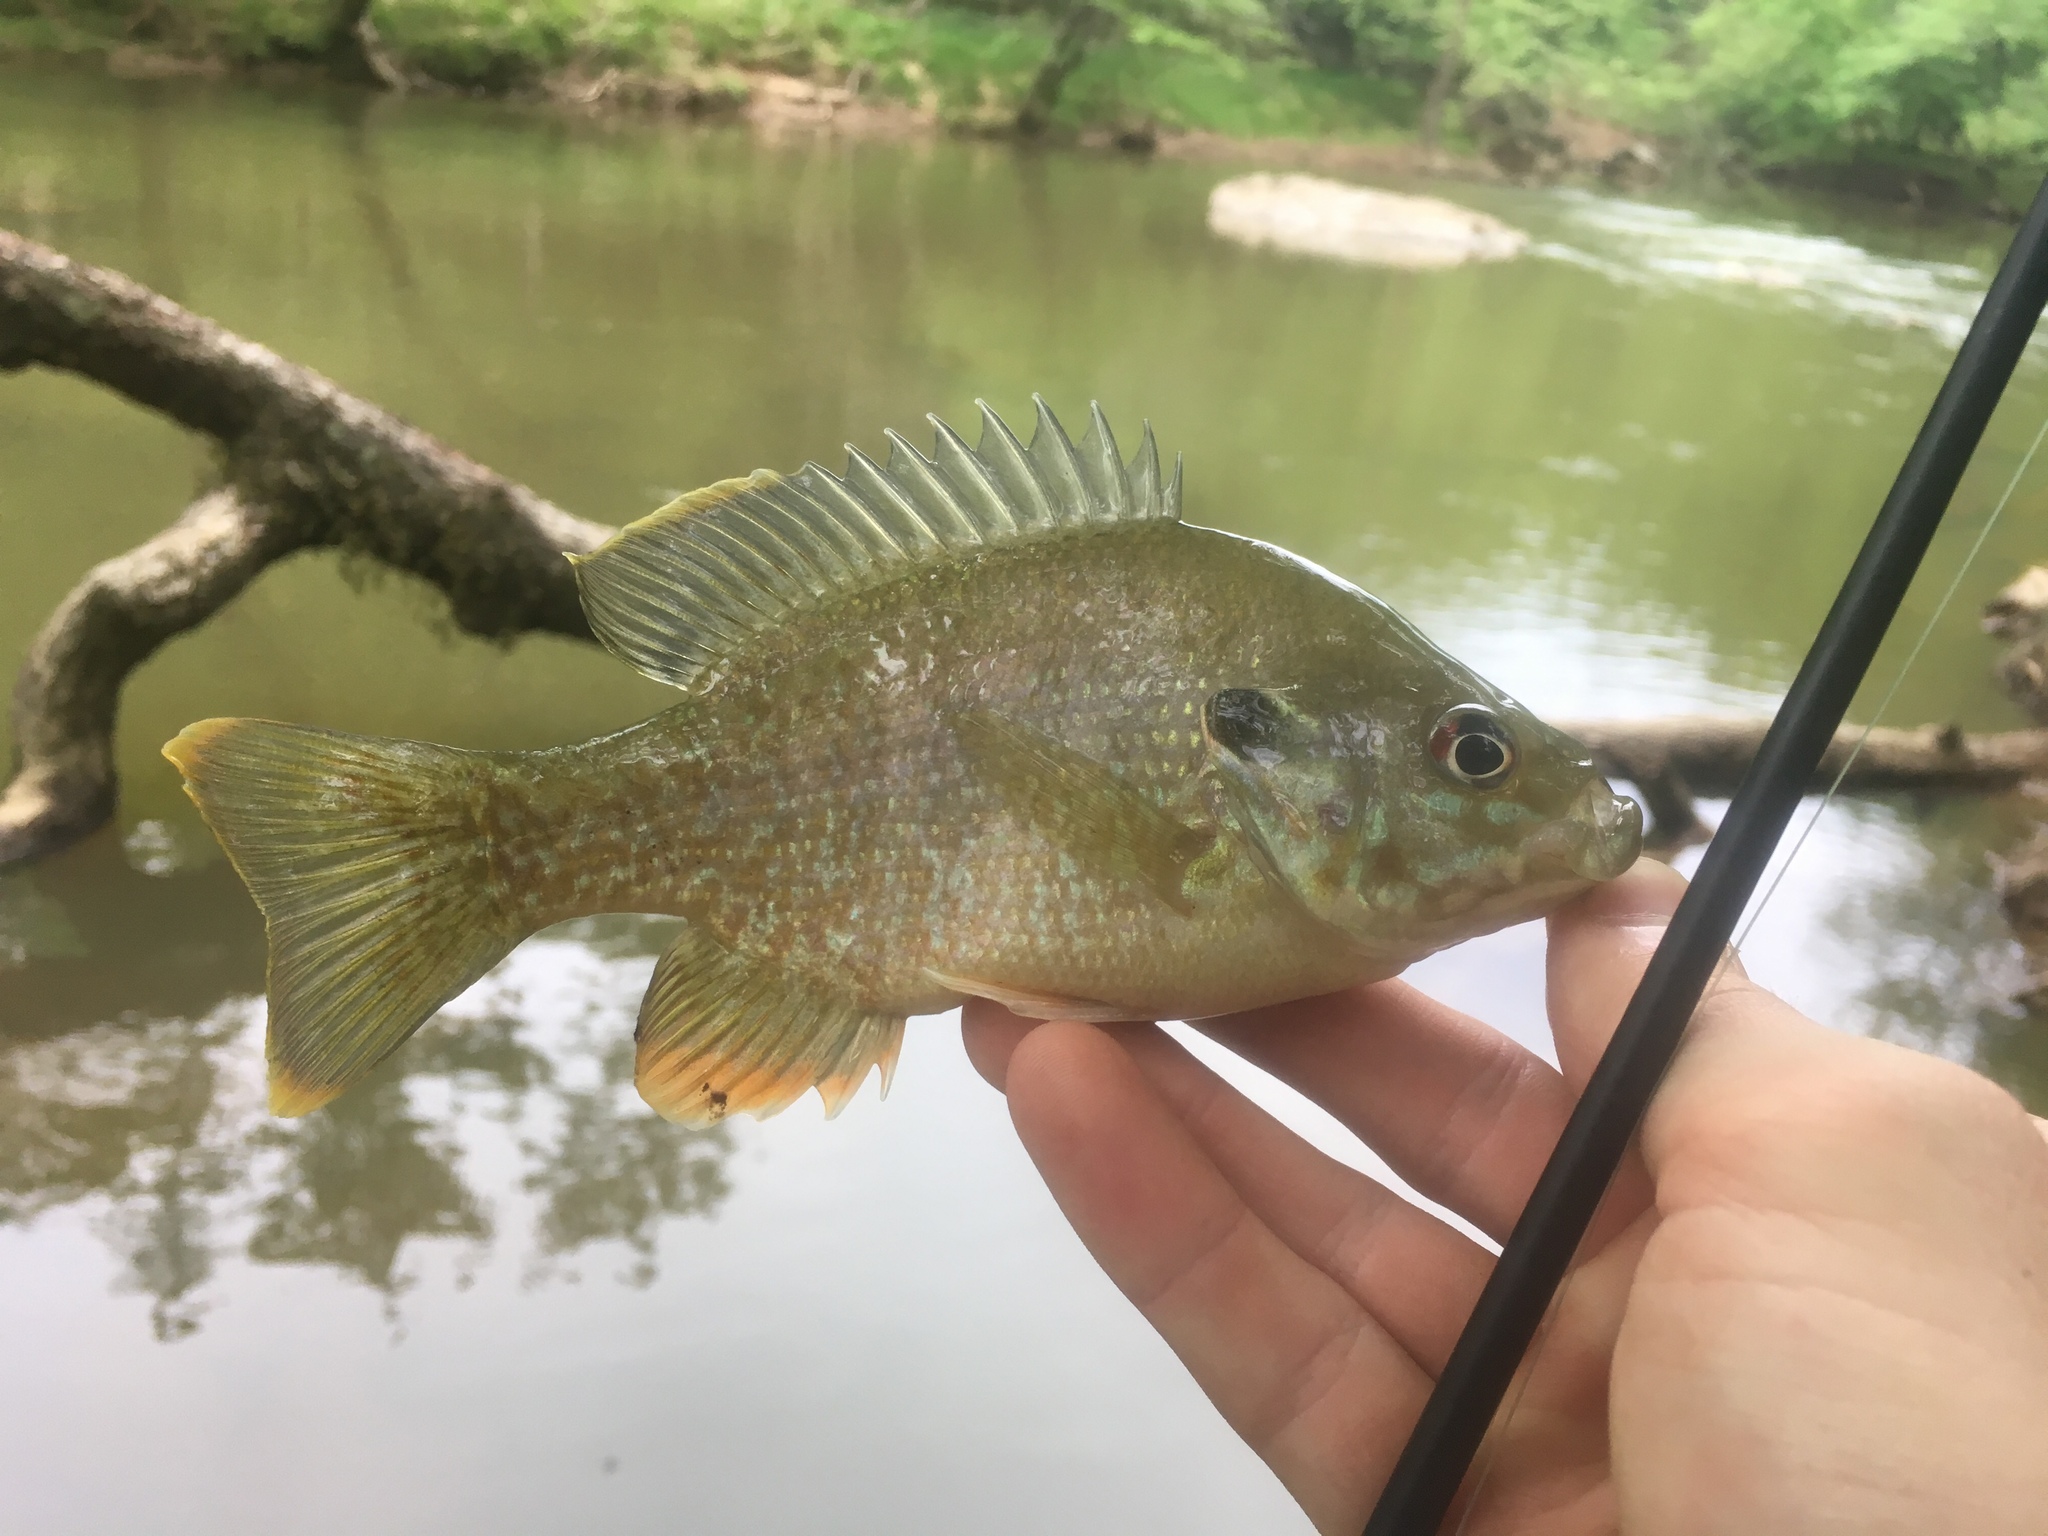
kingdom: Animalia
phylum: Chordata
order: Perciformes
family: Centrarchidae
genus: Lepomis
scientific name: Lepomis
